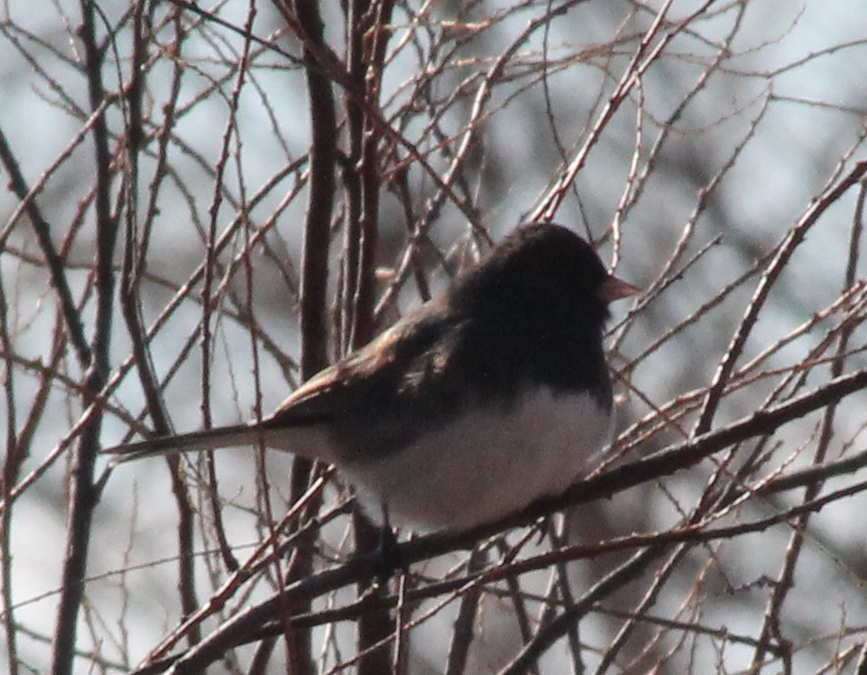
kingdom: Animalia
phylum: Chordata
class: Aves
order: Passeriformes
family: Passerellidae
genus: Junco
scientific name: Junco hyemalis
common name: Dark-eyed junco
